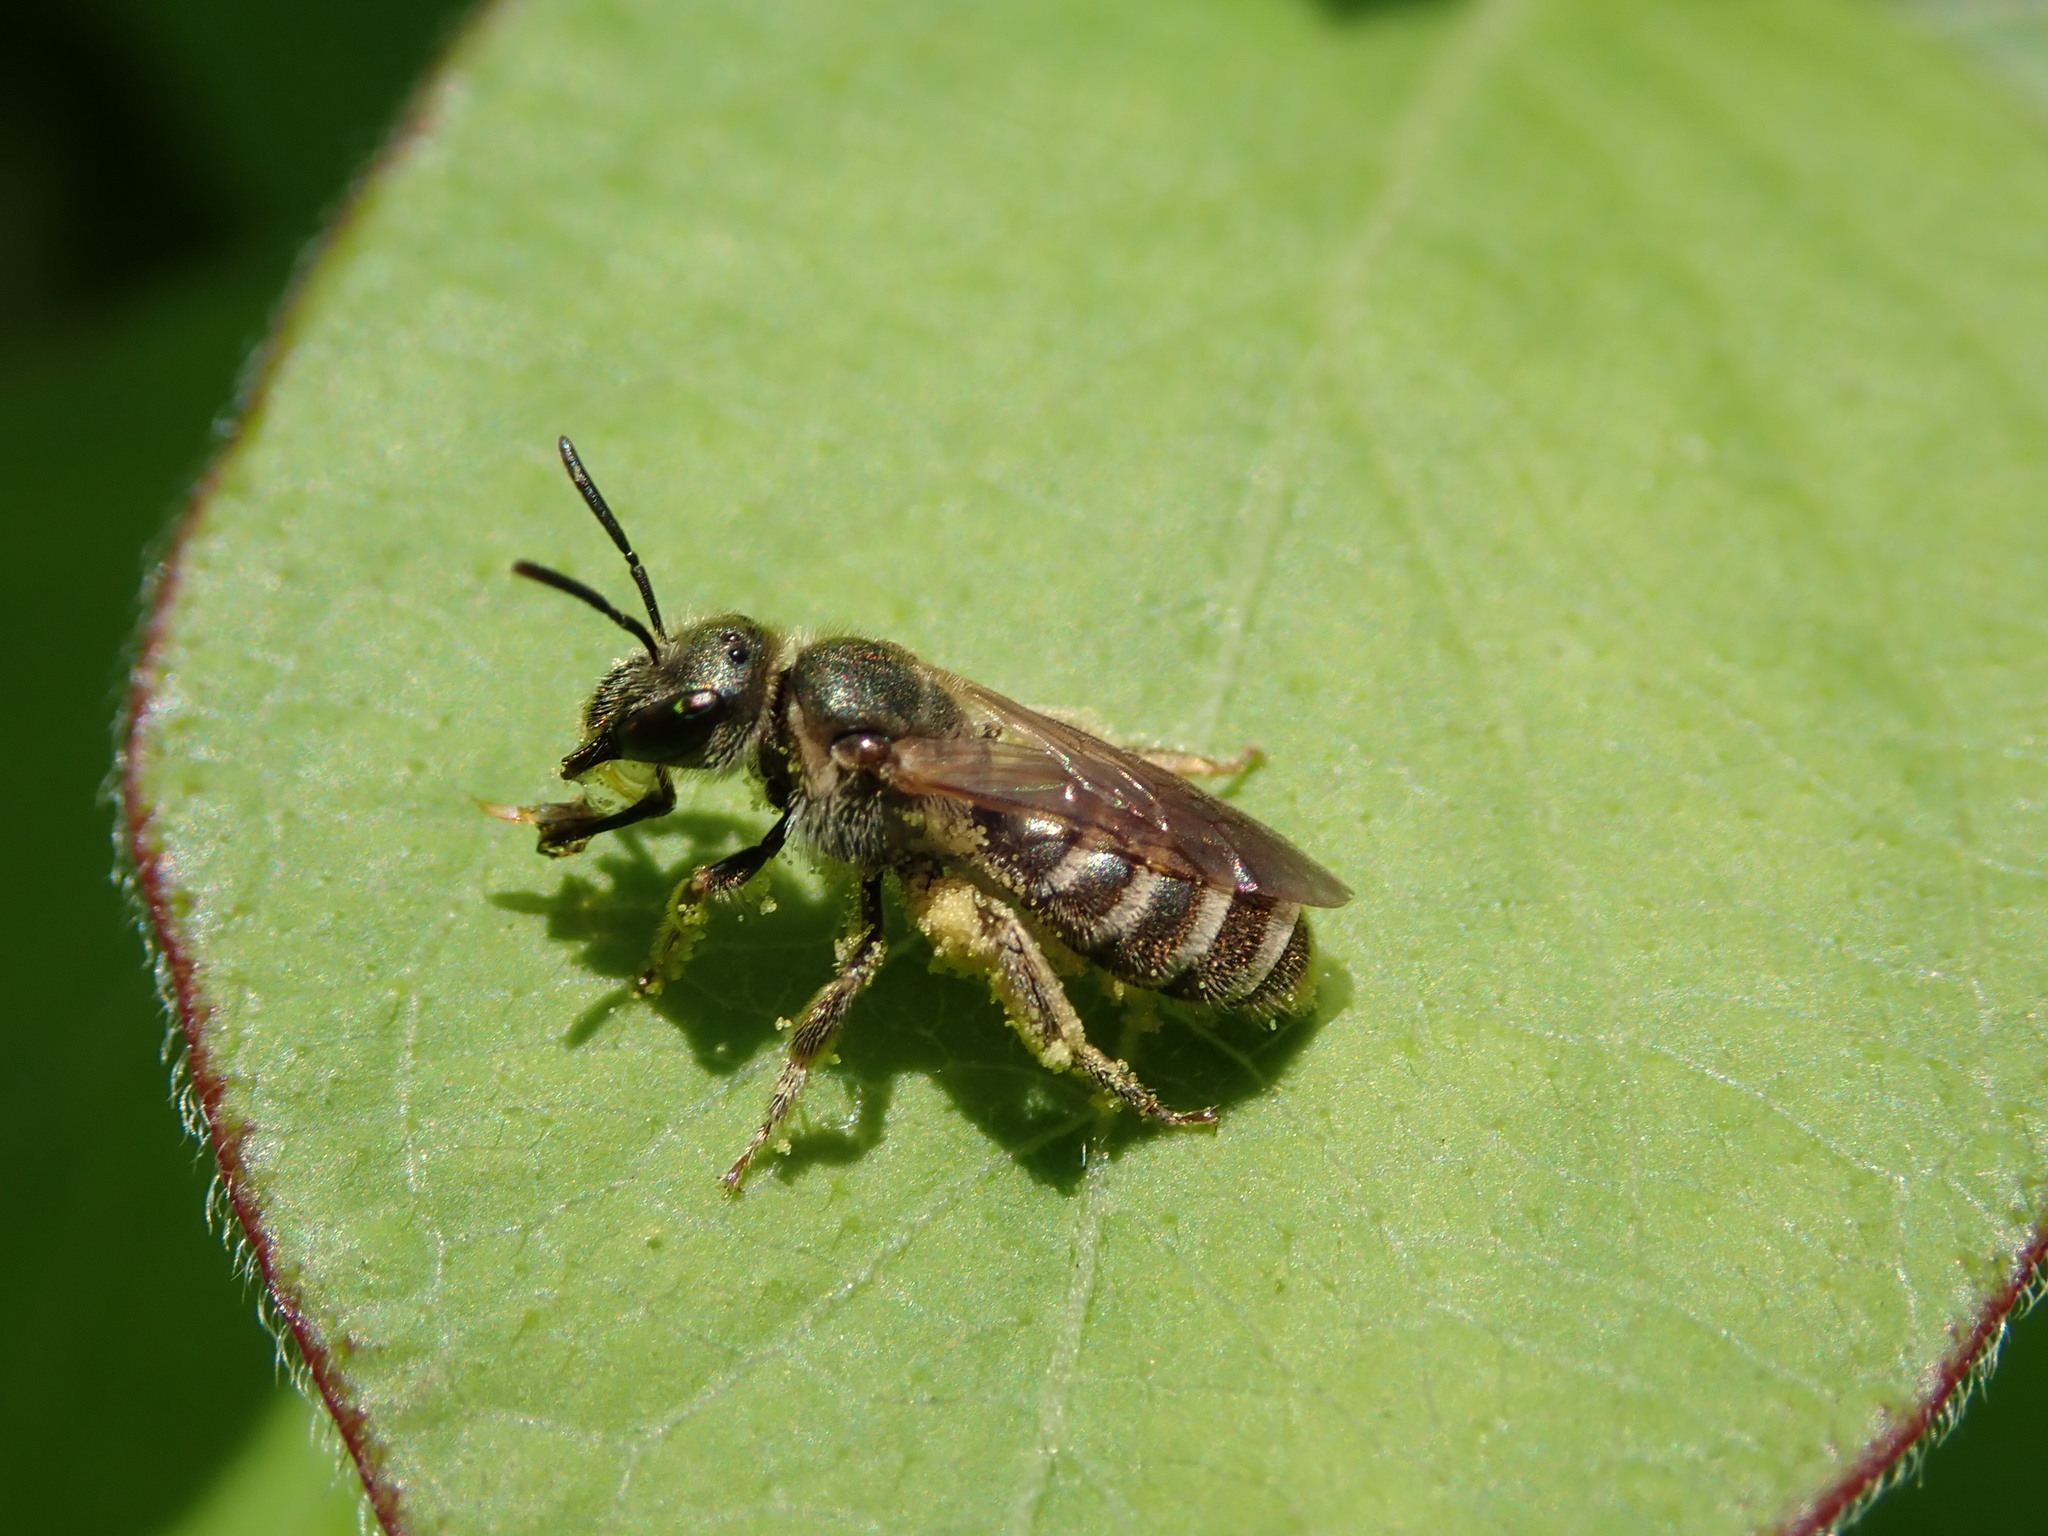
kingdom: Animalia
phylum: Arthropoda
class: Insecta
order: Hymenoptera
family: Halictidae
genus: Halictus
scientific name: Halictus confusus
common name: Southern bronze furrow bee
